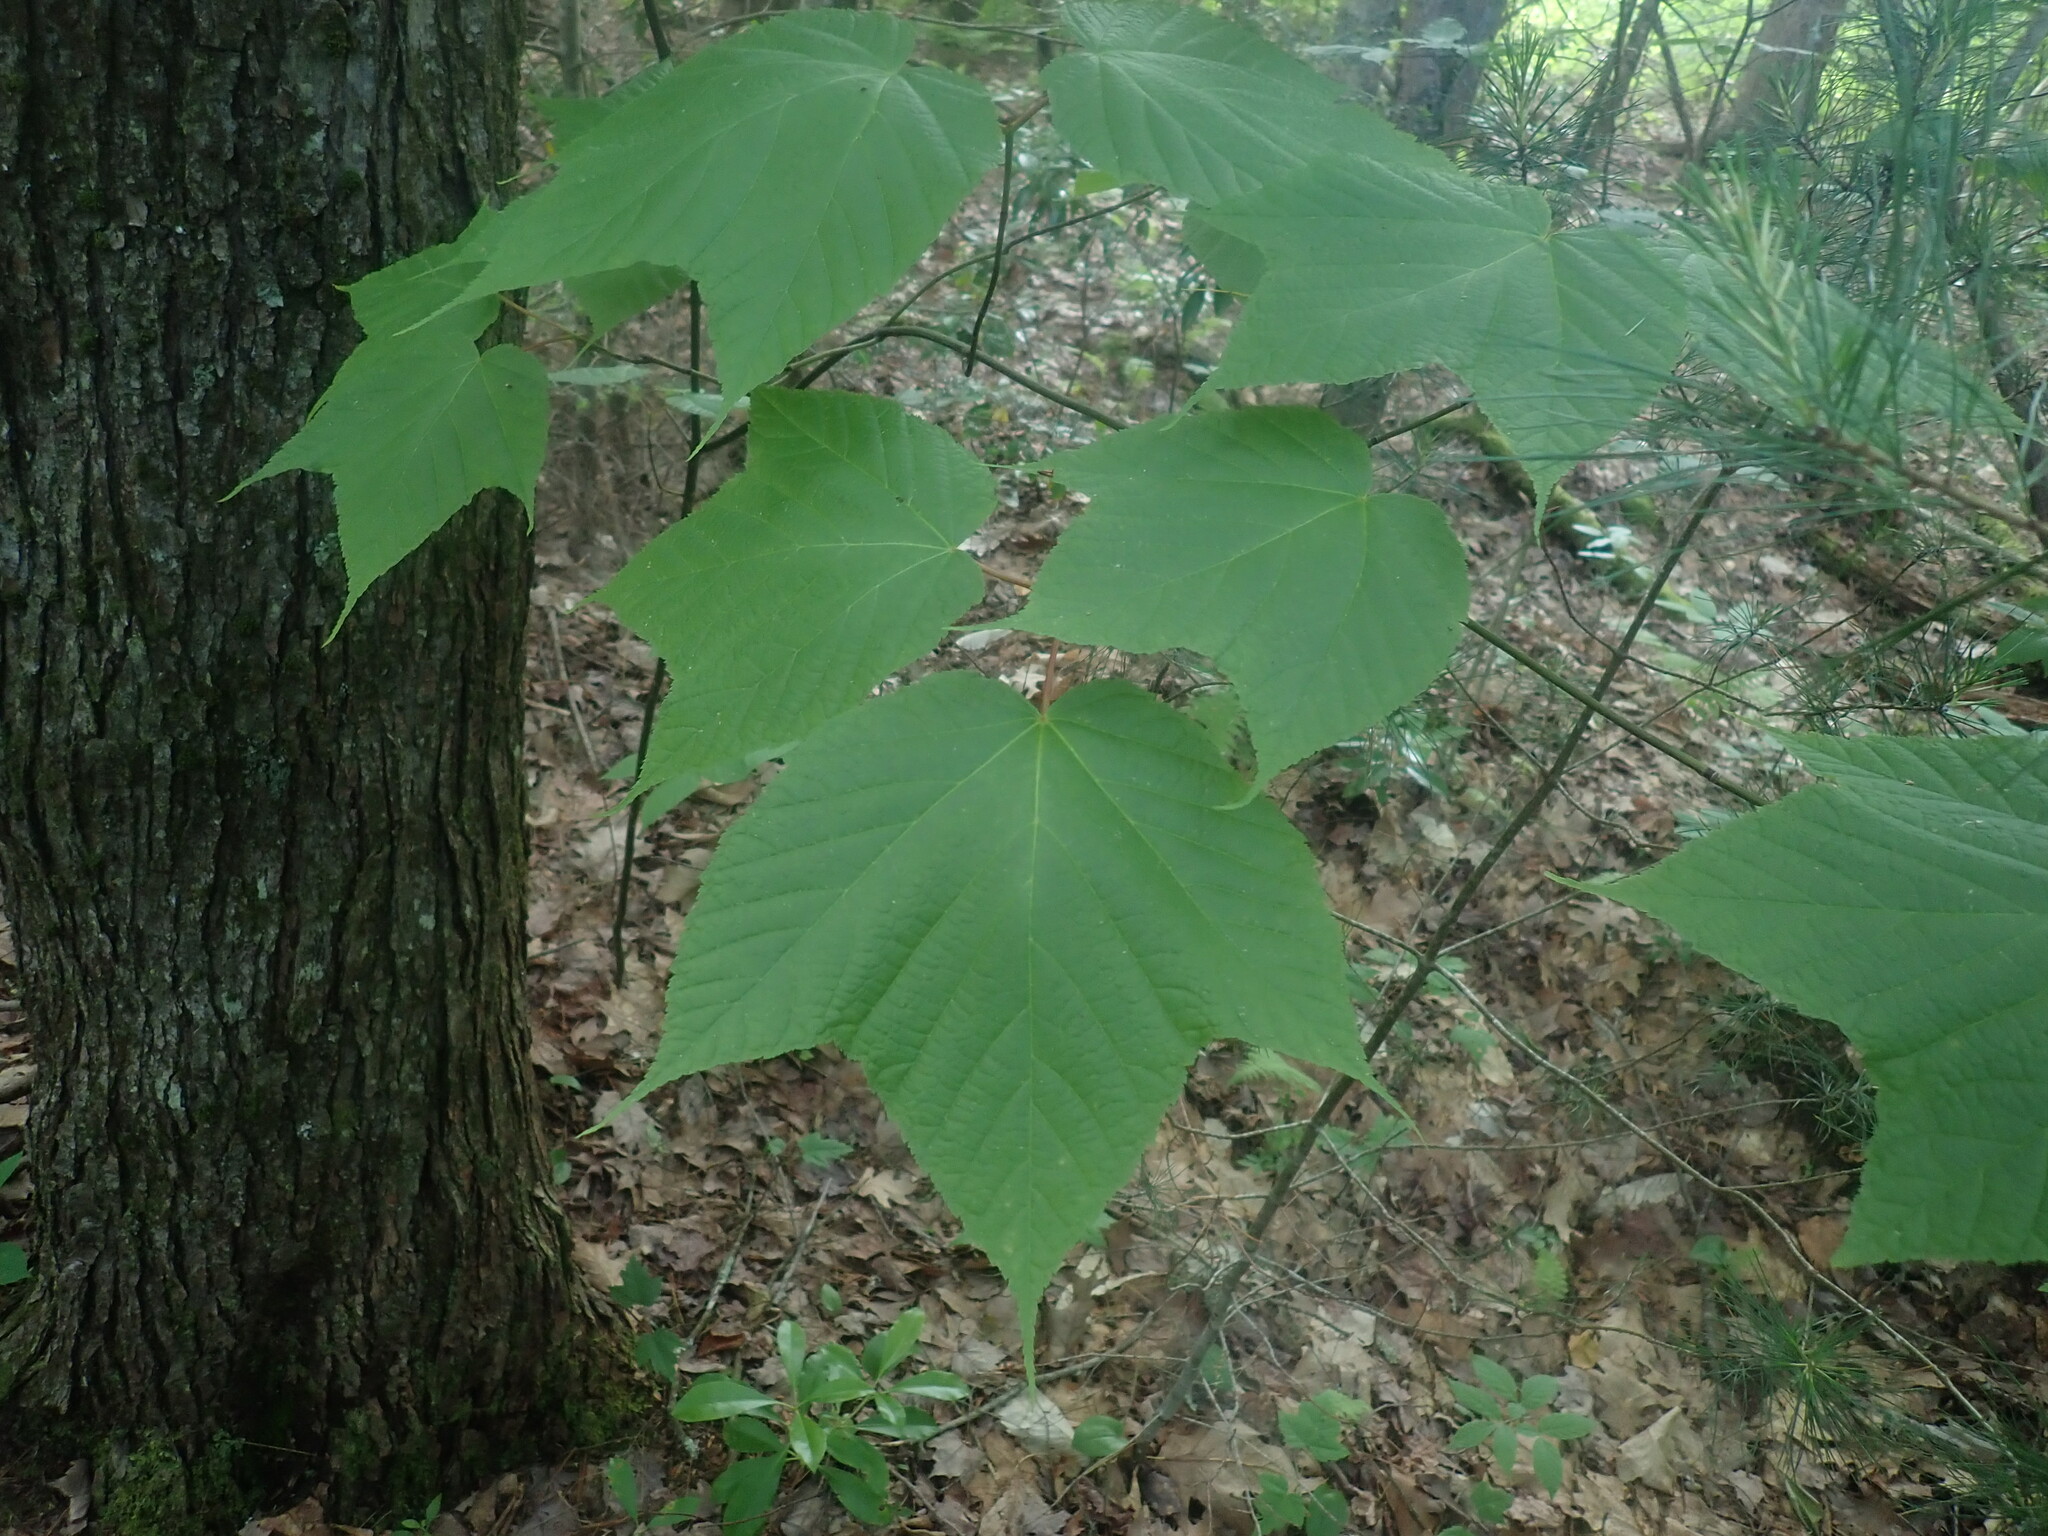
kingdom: Plantae
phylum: Tracheophyta
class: Magnoliopsida
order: Sapindales
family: Sapindaceae
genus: Acer
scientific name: Acer pensylvanicum
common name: Moosewood
